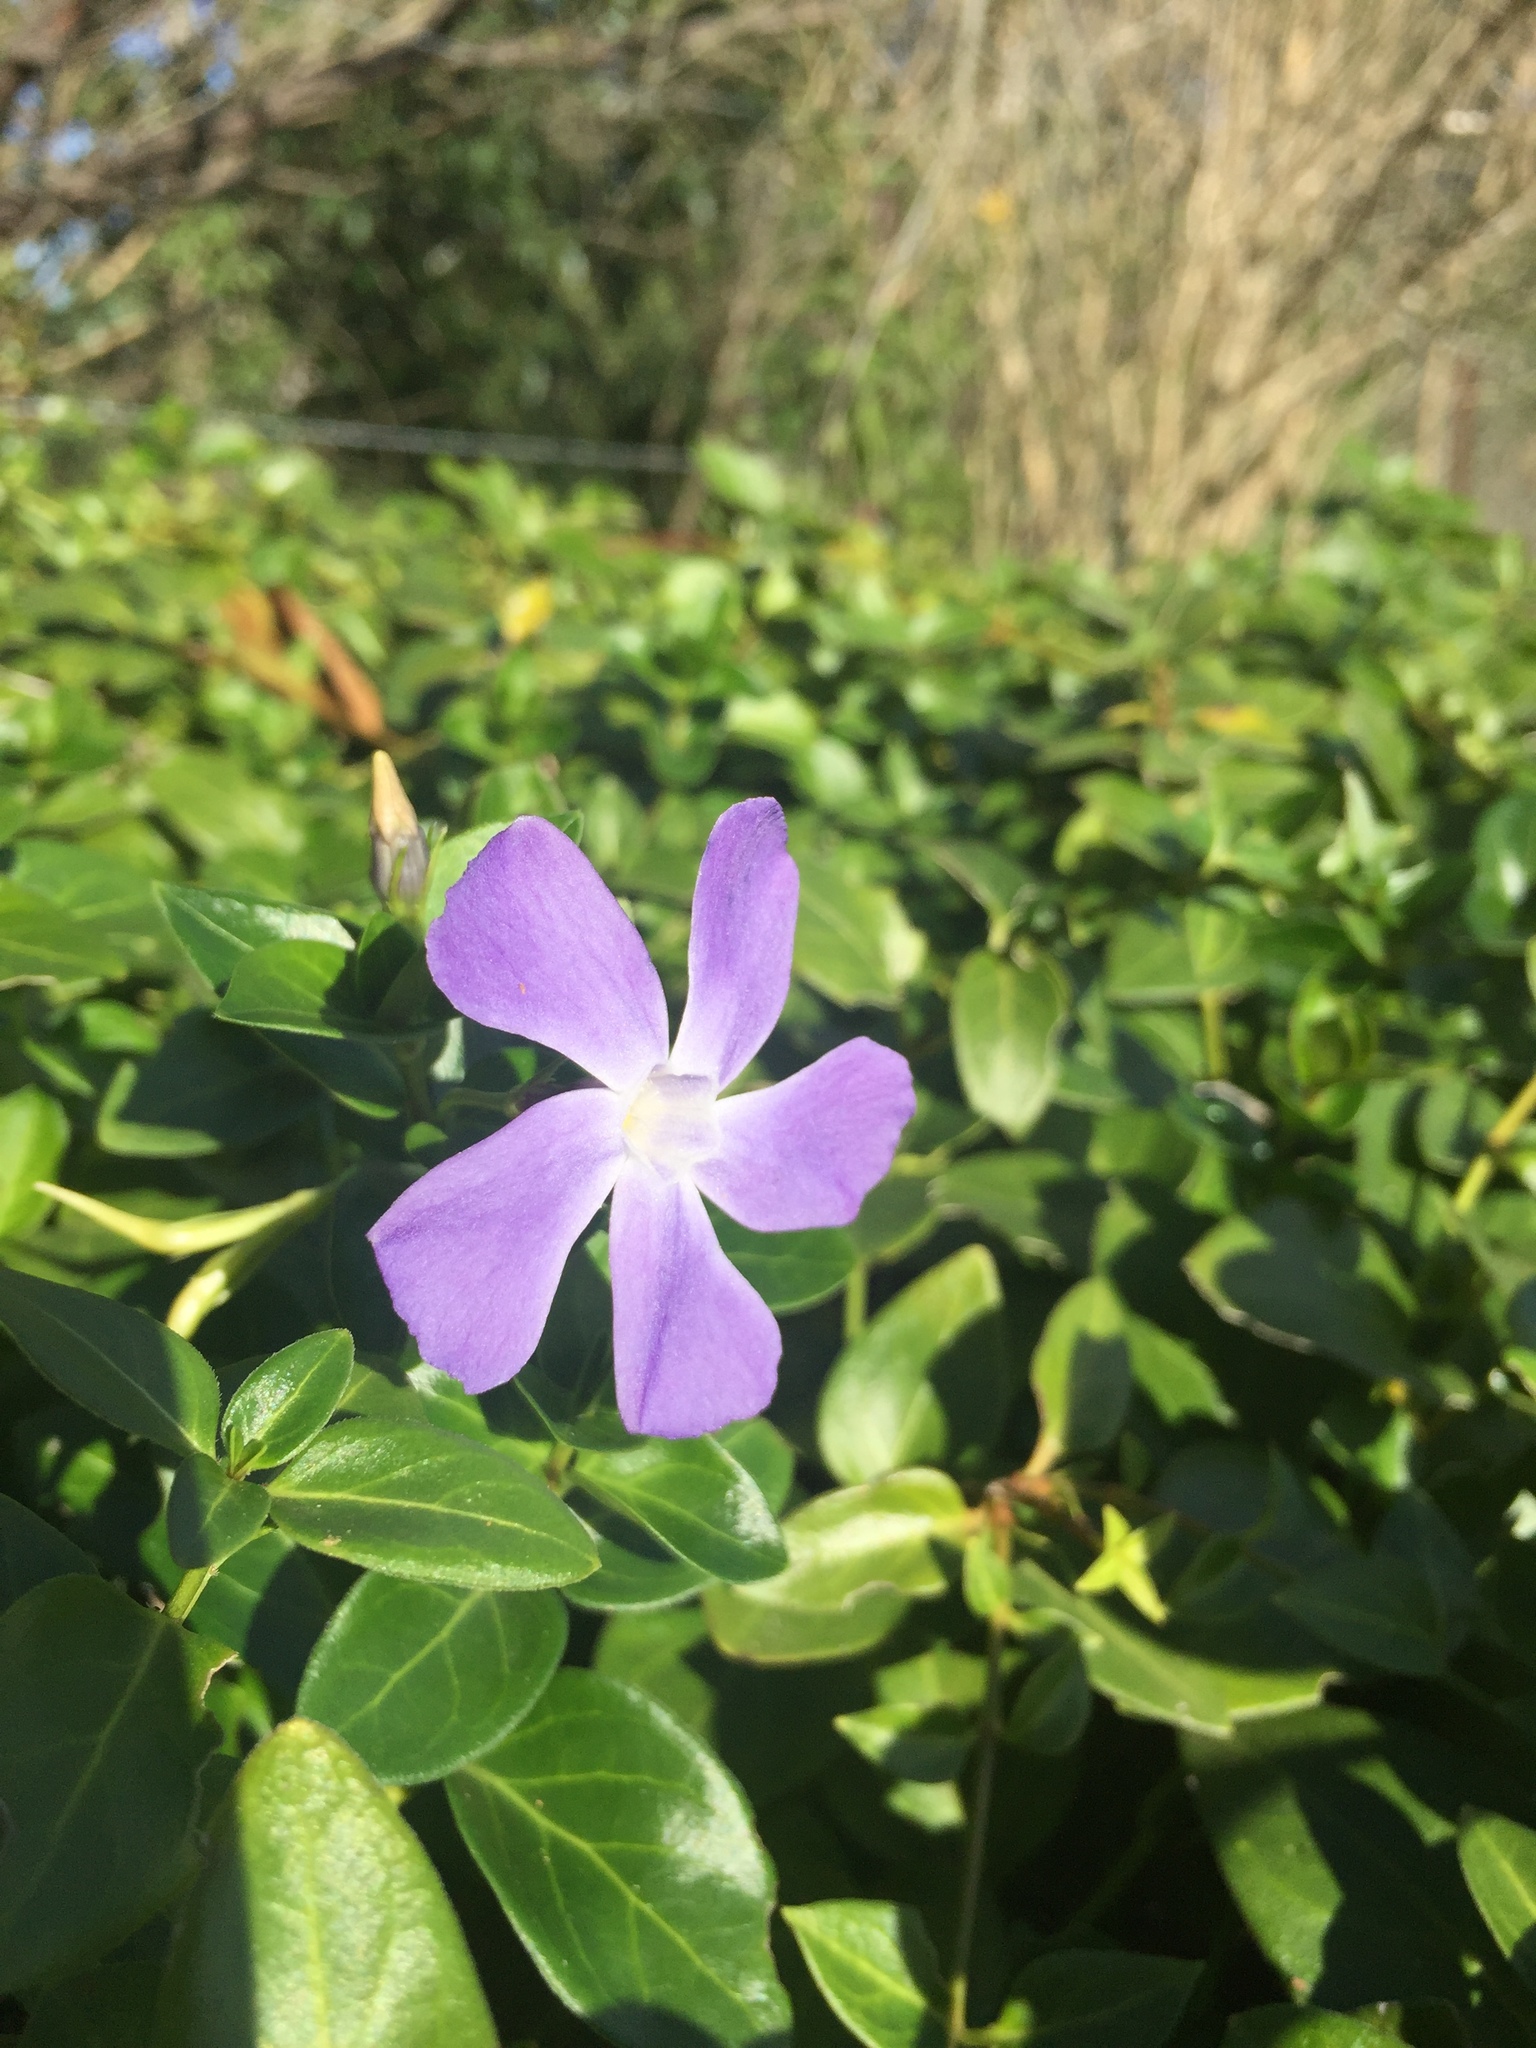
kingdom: Plantae
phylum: Tracheophyta
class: Magnoliopsida
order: Gentianales
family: Apocynaceae
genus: Vinca
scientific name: Vinca major
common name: Greater periwinkle
